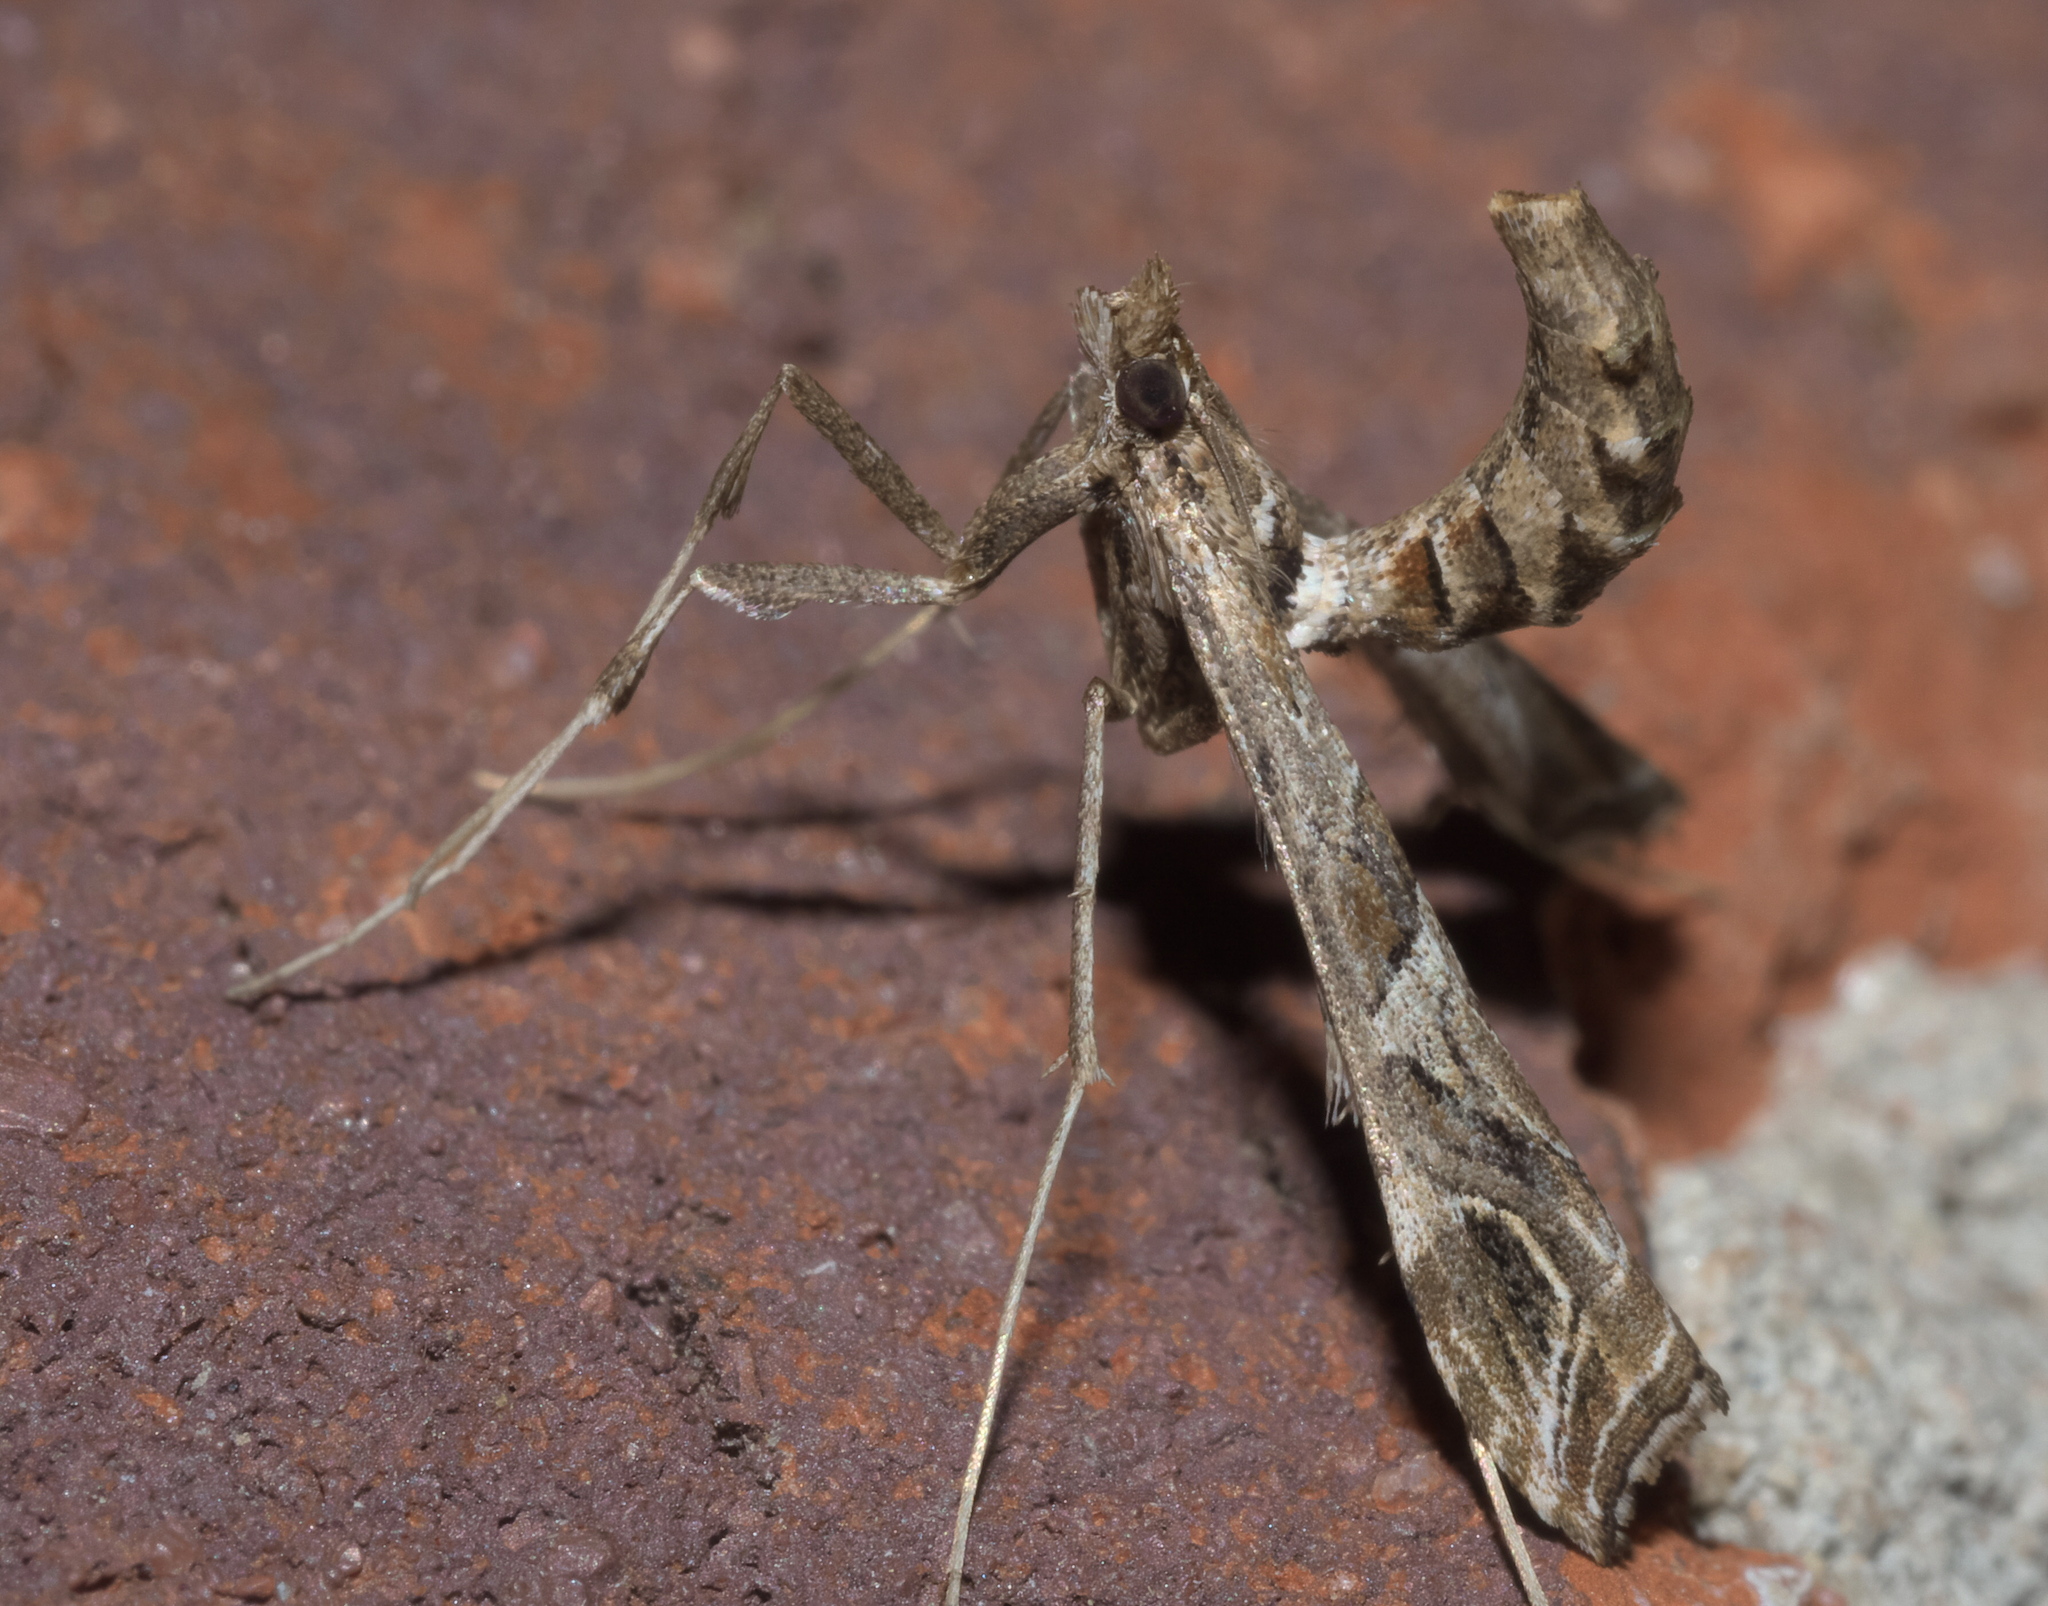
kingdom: Animalia
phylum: Arthropoda
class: Insecta
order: Lepidoptera
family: Crambidae
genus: Lineodes
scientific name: Lineodes interrupta
